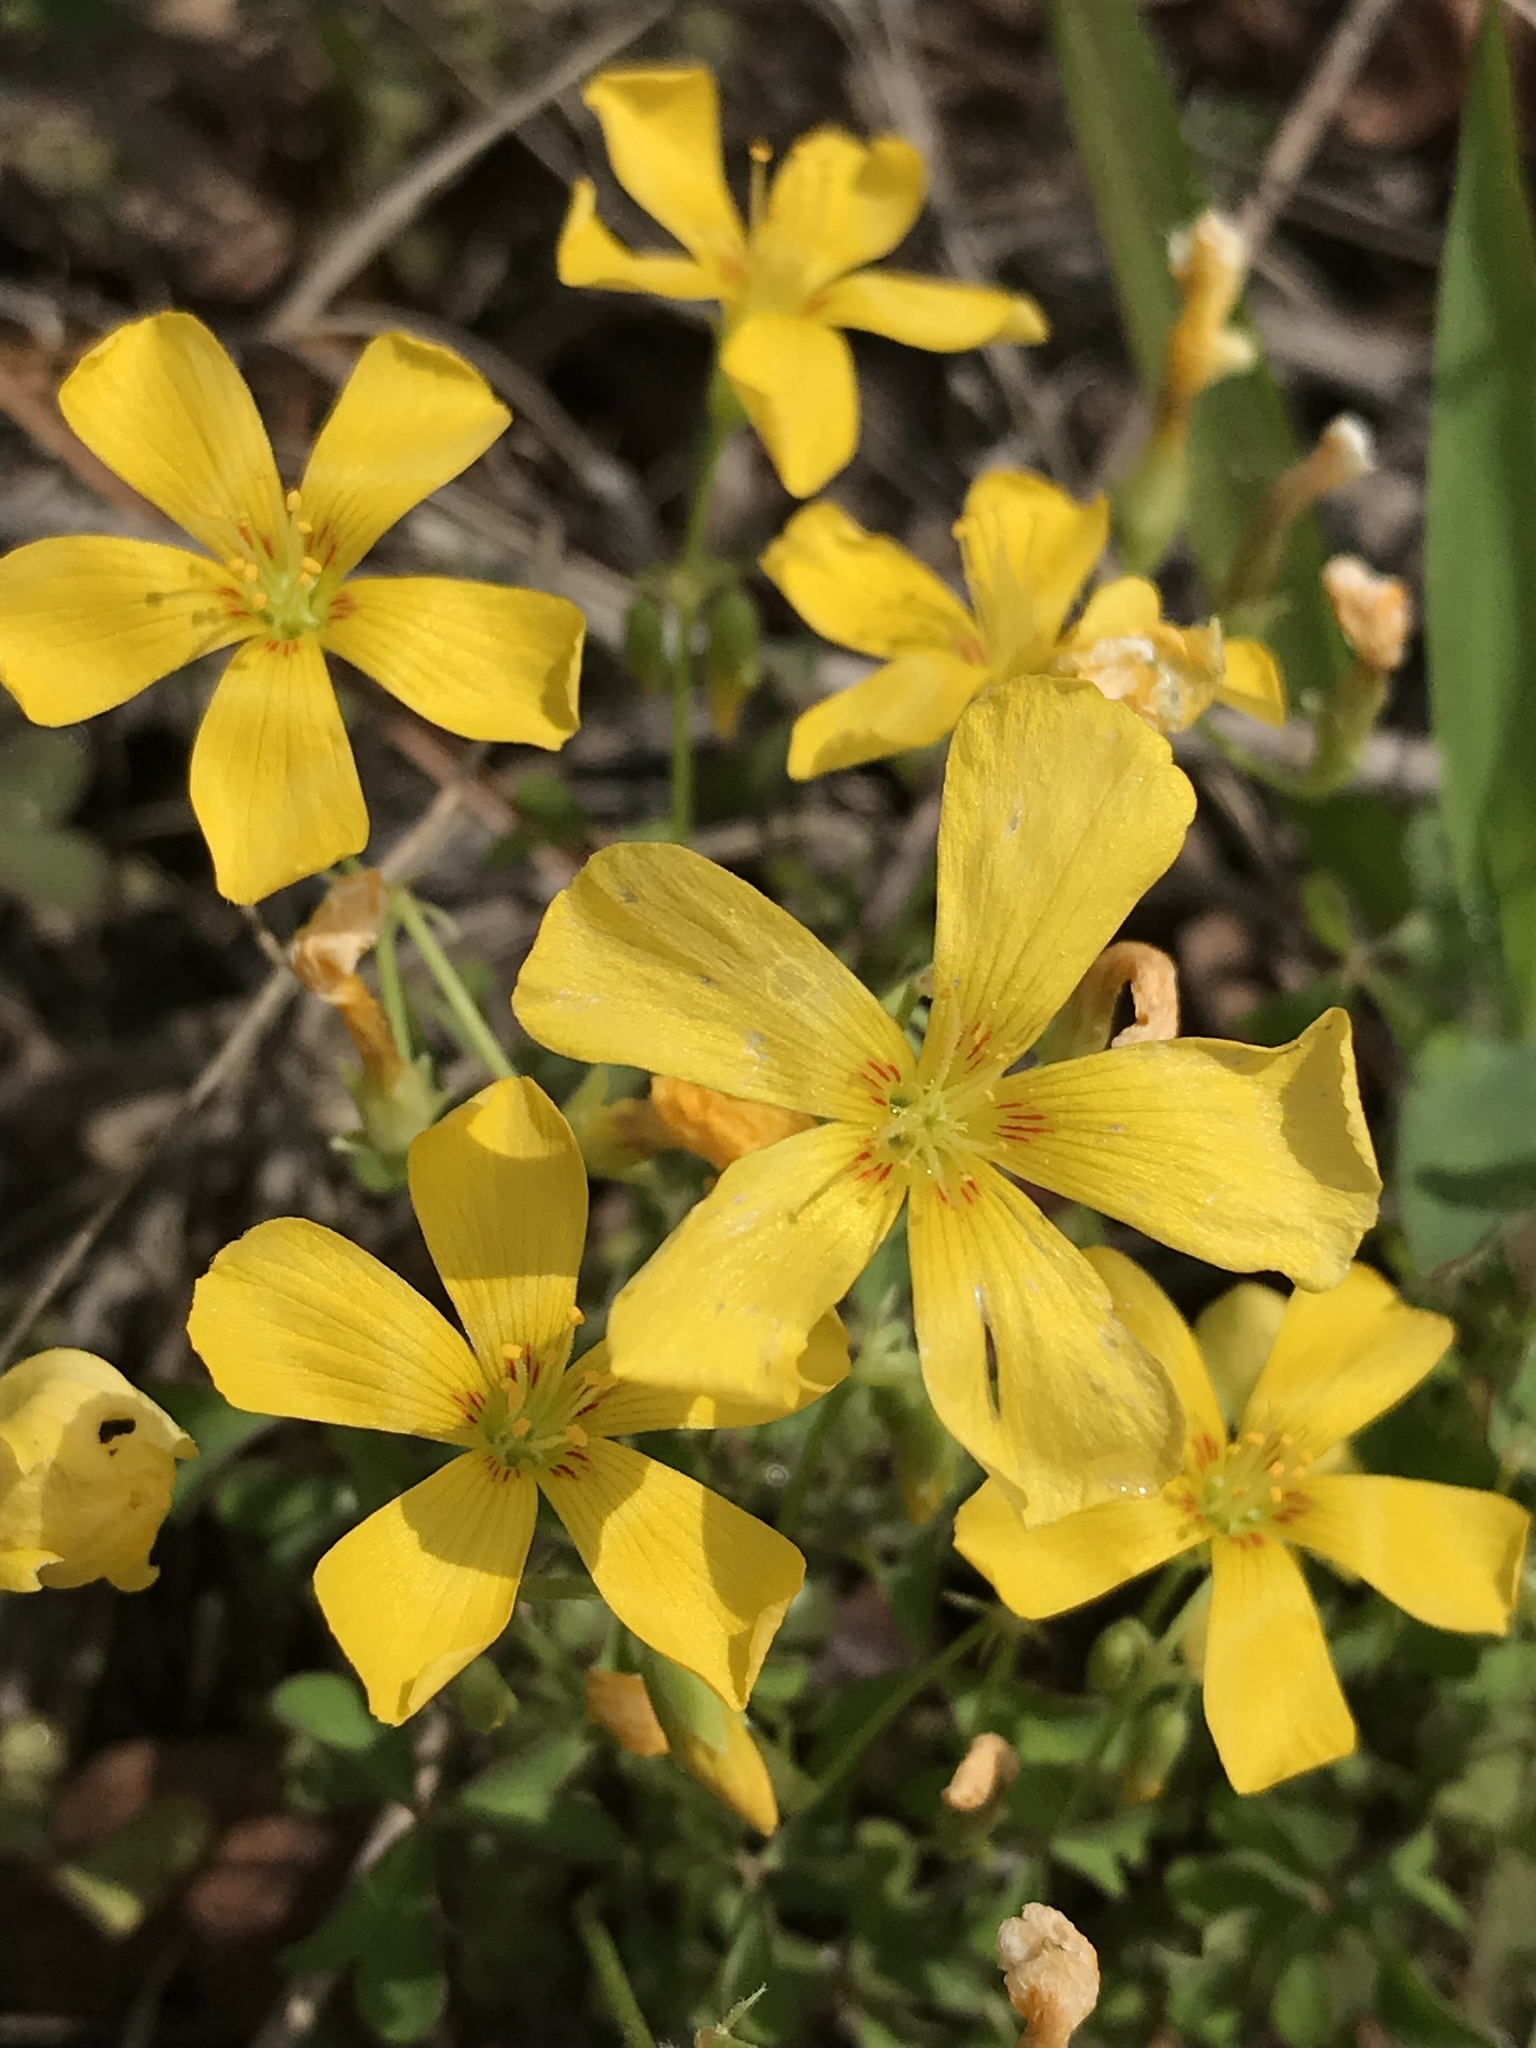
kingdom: Plantae
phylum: Tracheophyta
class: Magnoliopsida
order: Oxalidales
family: Oxalidaceae
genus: Oxalis
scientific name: Oxalis texana
